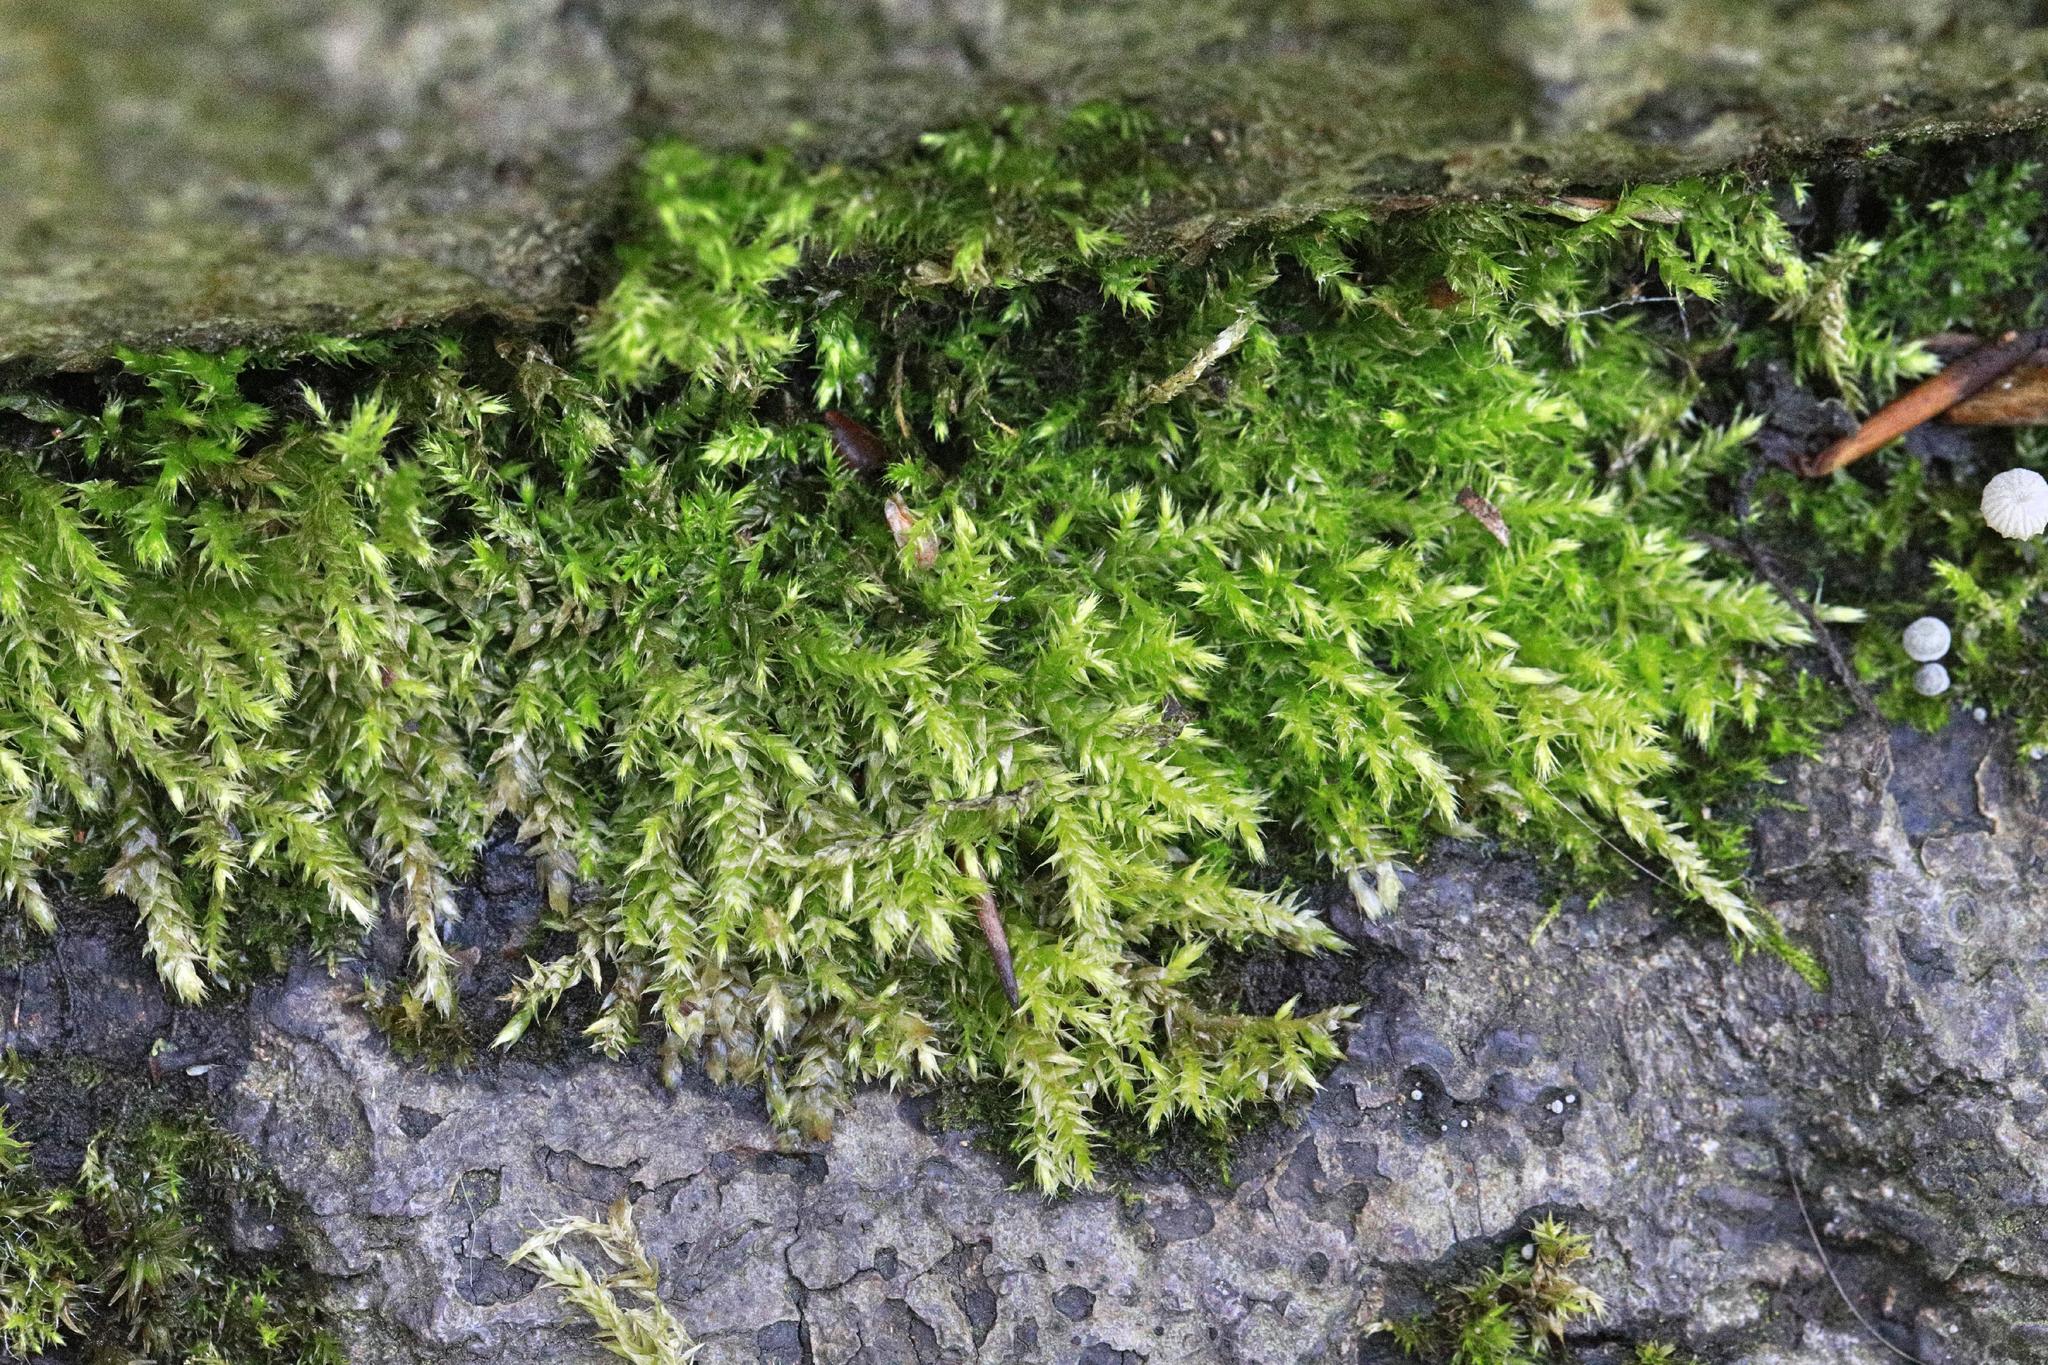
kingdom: Plantae
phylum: Bryophyta
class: Bryopsida
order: Hypnales
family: Brachytheciaceae
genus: Brachythecium
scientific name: Brachythecium rutabulum
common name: Rough-stalked feather-moss
